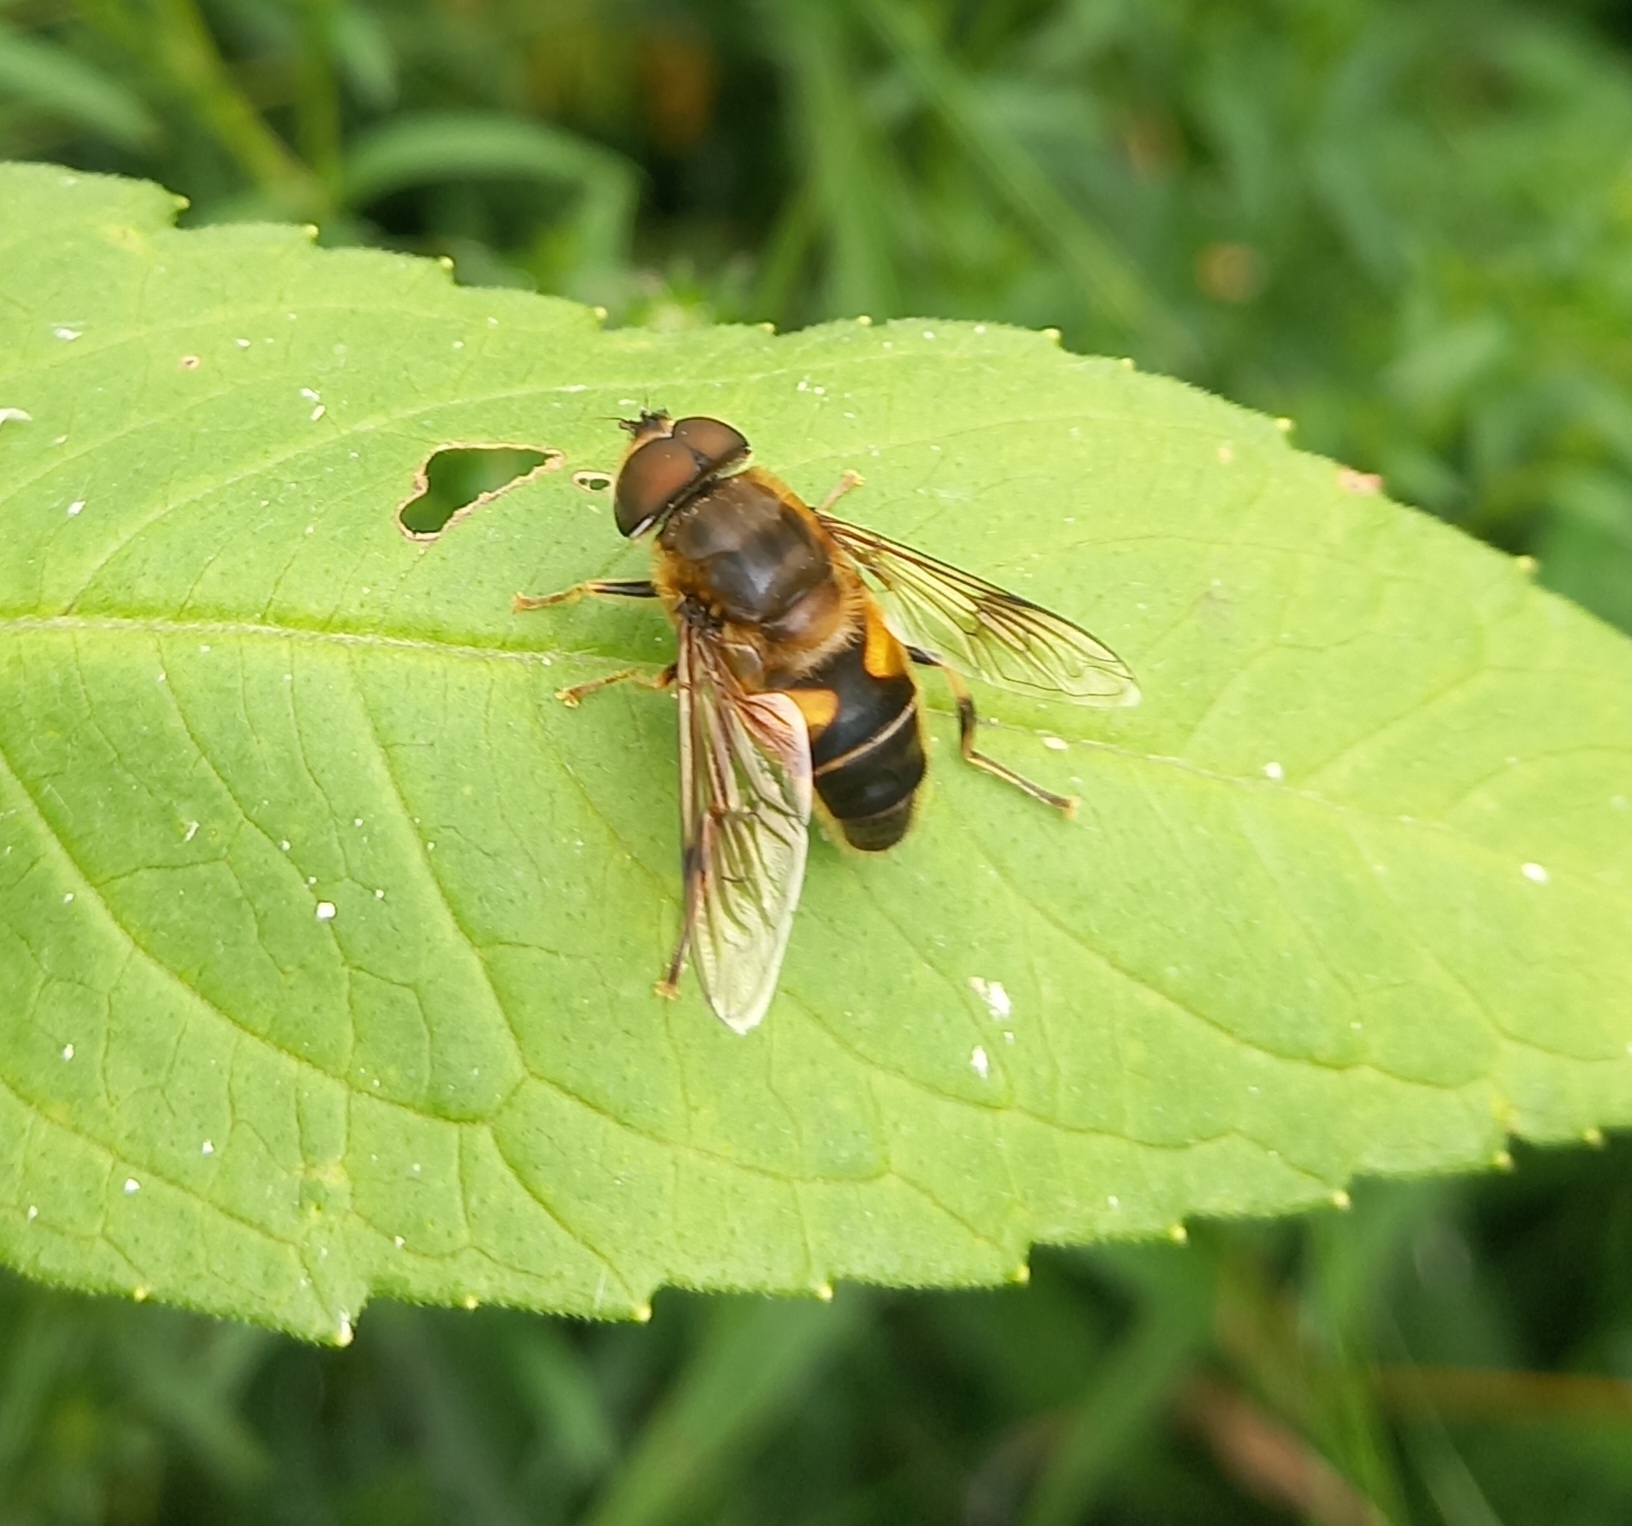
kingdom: Animalia
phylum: Arthropoda
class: Insecta
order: Diptera
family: Syrphidae
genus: Eristalis
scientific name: Eristalis pertinax
